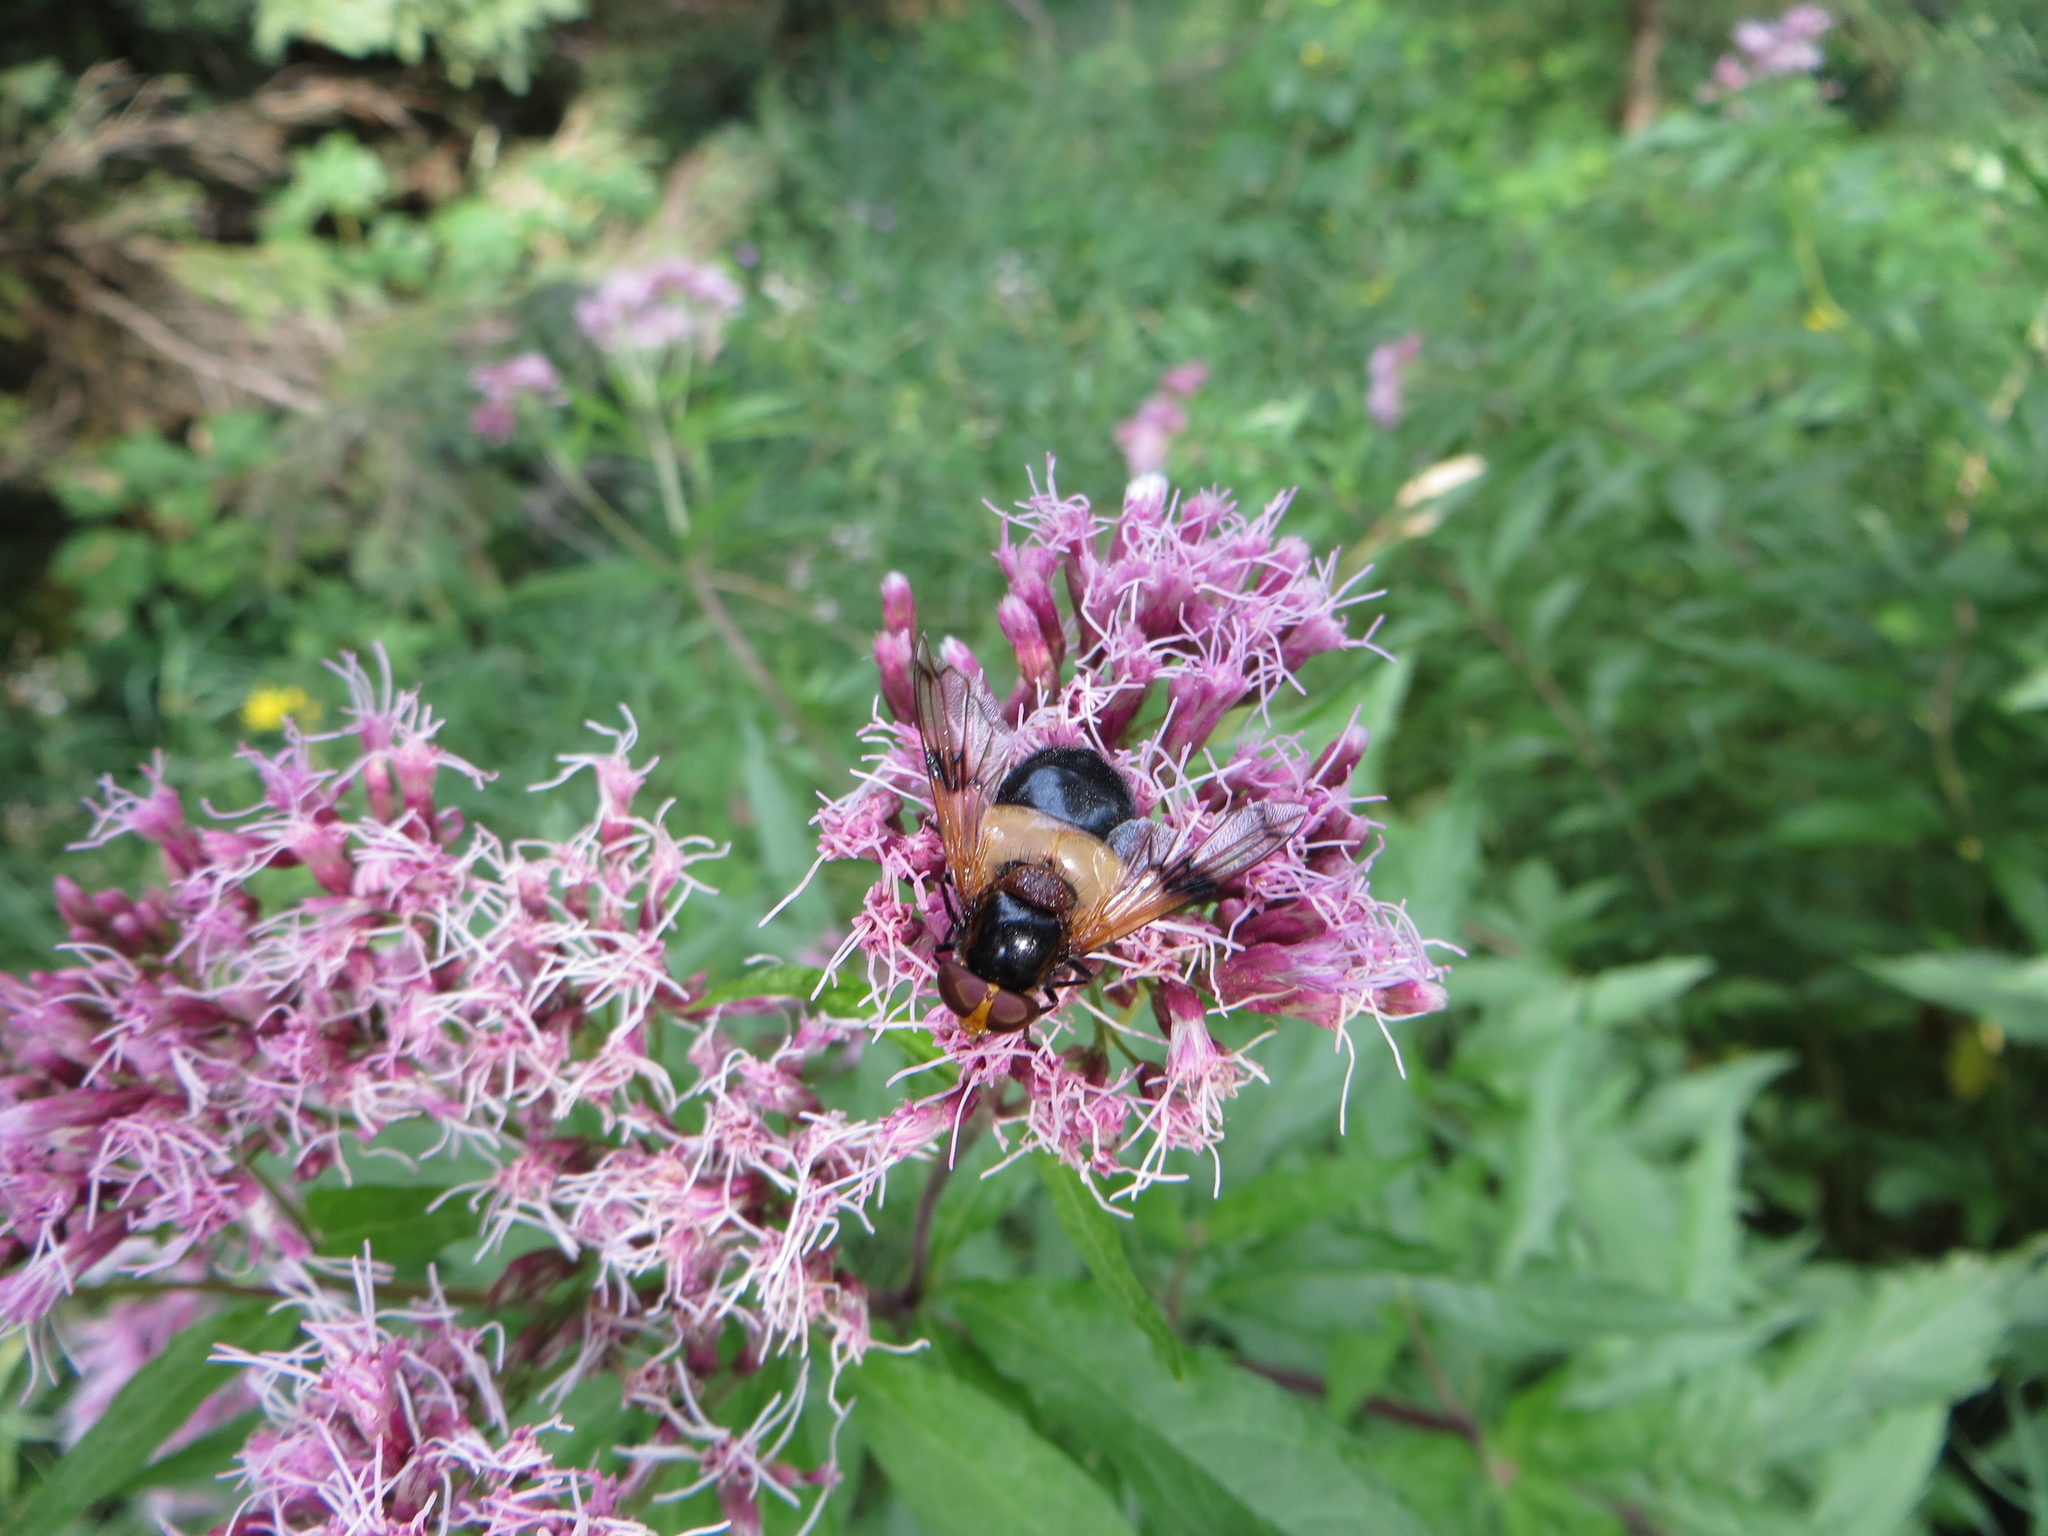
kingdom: Animalia
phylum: Arthropoda
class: Insecta
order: Diptera
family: Syrphidae
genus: Volucella
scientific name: Volucella pellucens
